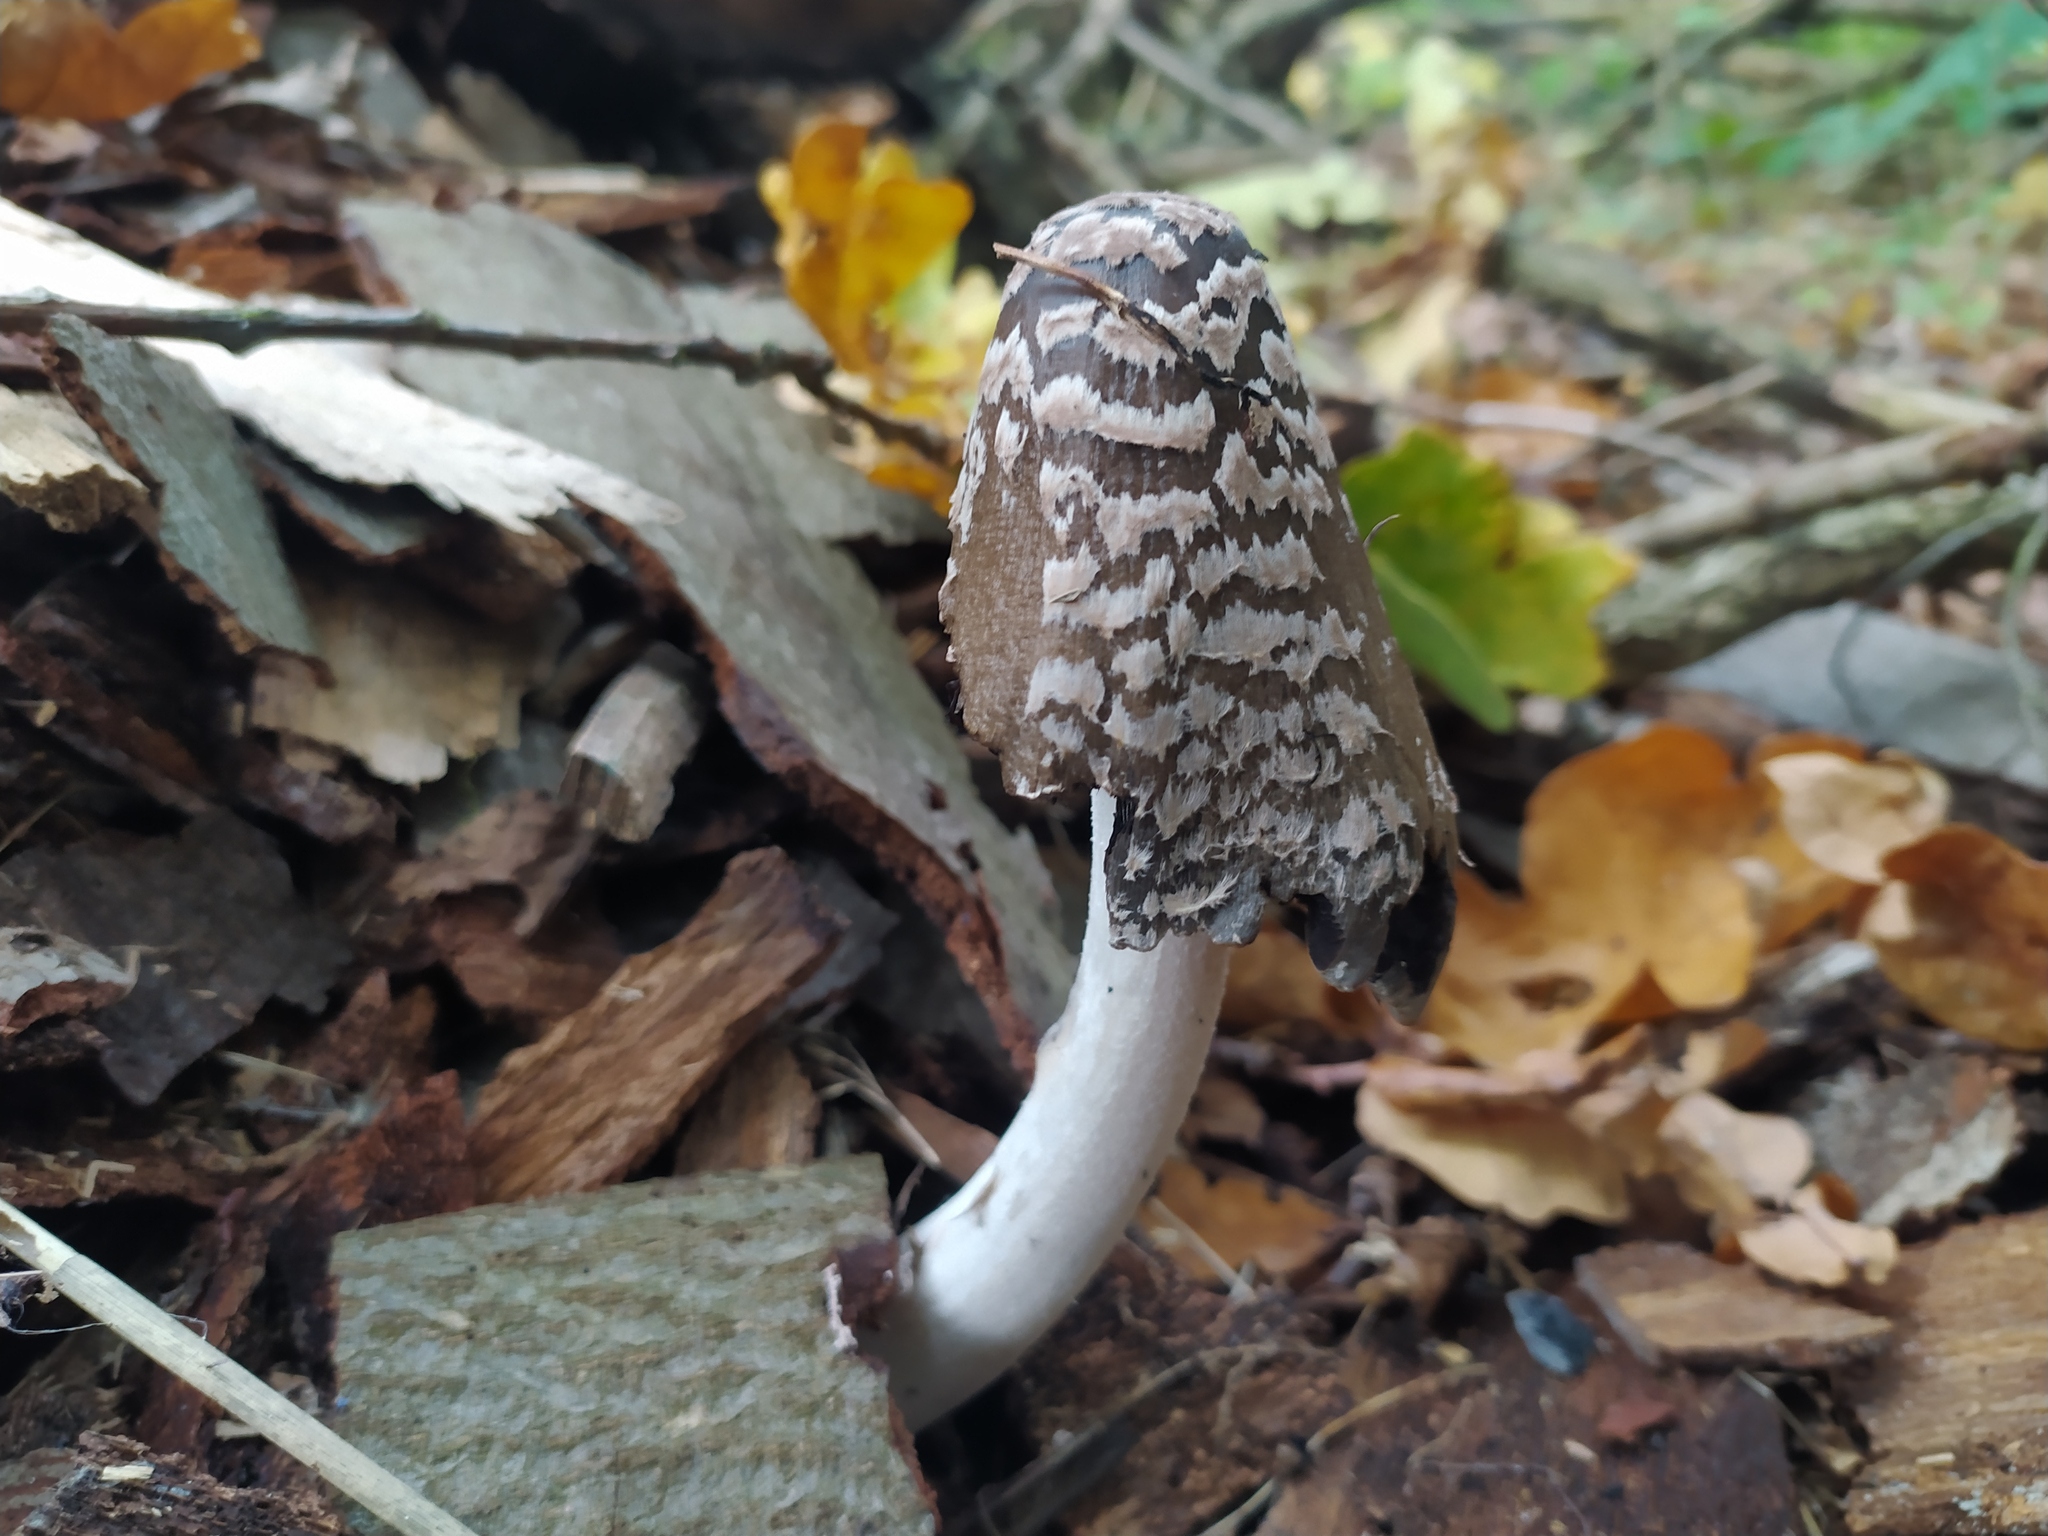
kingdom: Fungi
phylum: Basidiomycota
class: Agaricomycetes
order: Agaricales
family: Psathyrellaceae
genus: Coprinopsis
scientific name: Coprinopsis picacea
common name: Magpie inkcap
